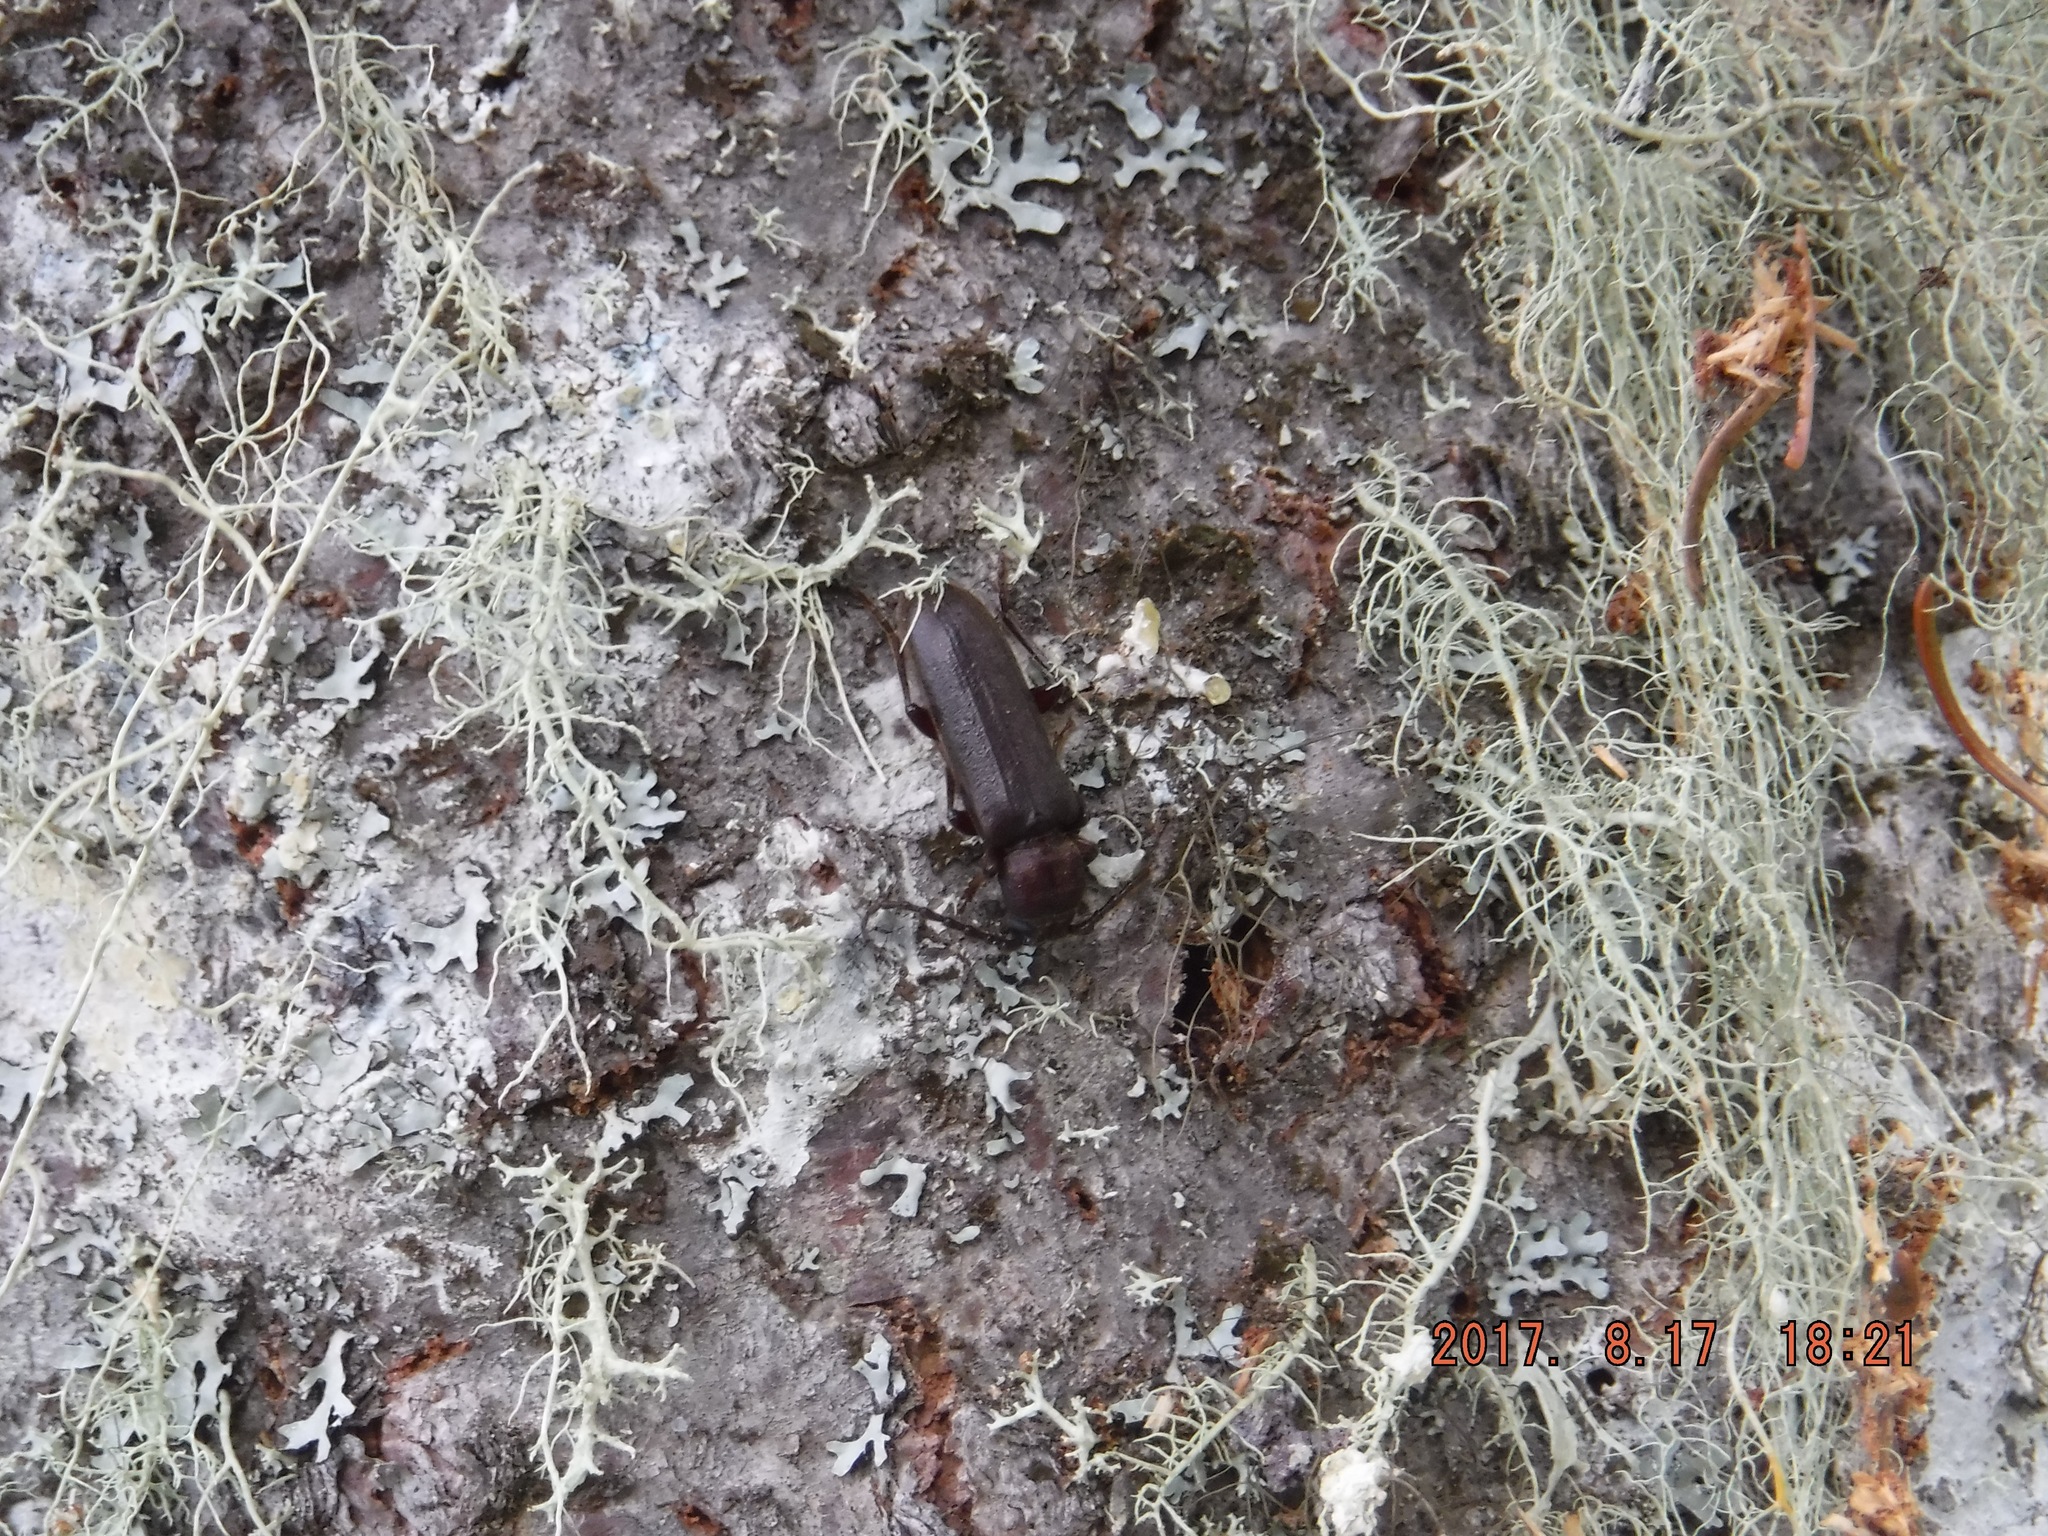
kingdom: Animalia
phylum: Arthropoda
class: Insecta
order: Coleoptera
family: Cerambycidae
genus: Megasemum
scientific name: Megasemum asperum
